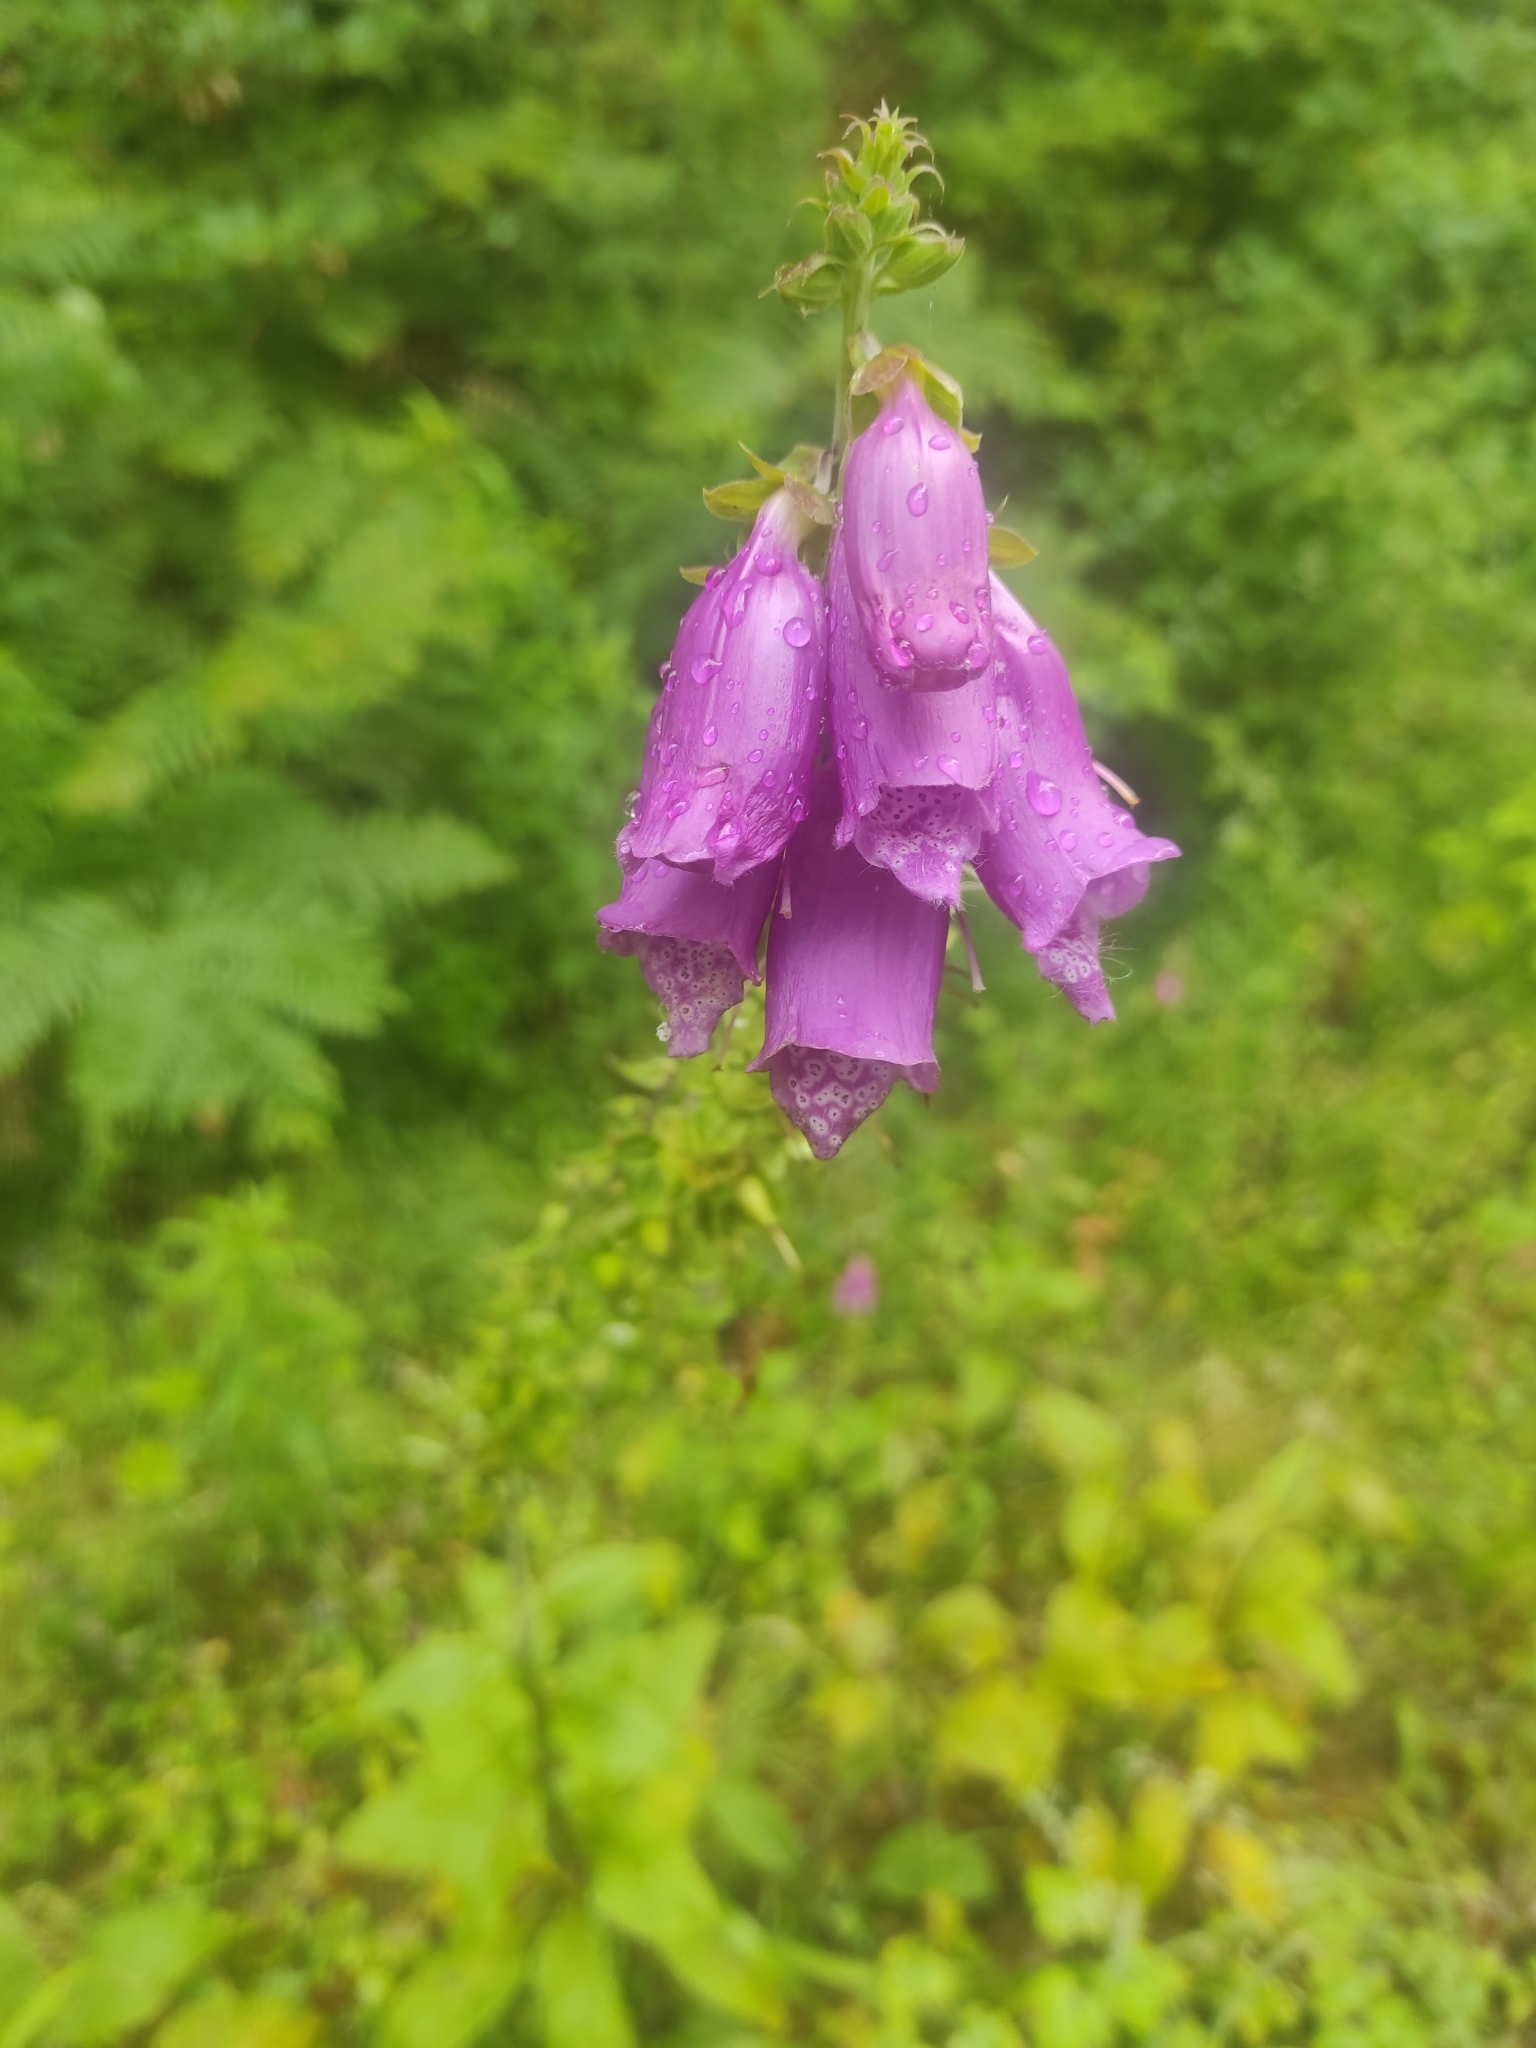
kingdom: Plantae
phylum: Tracheophyta
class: Magnoliopsida
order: Lamiales
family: Plantaginaceae
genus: Digitalis
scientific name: Digitalis purpurea
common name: Foxglove
